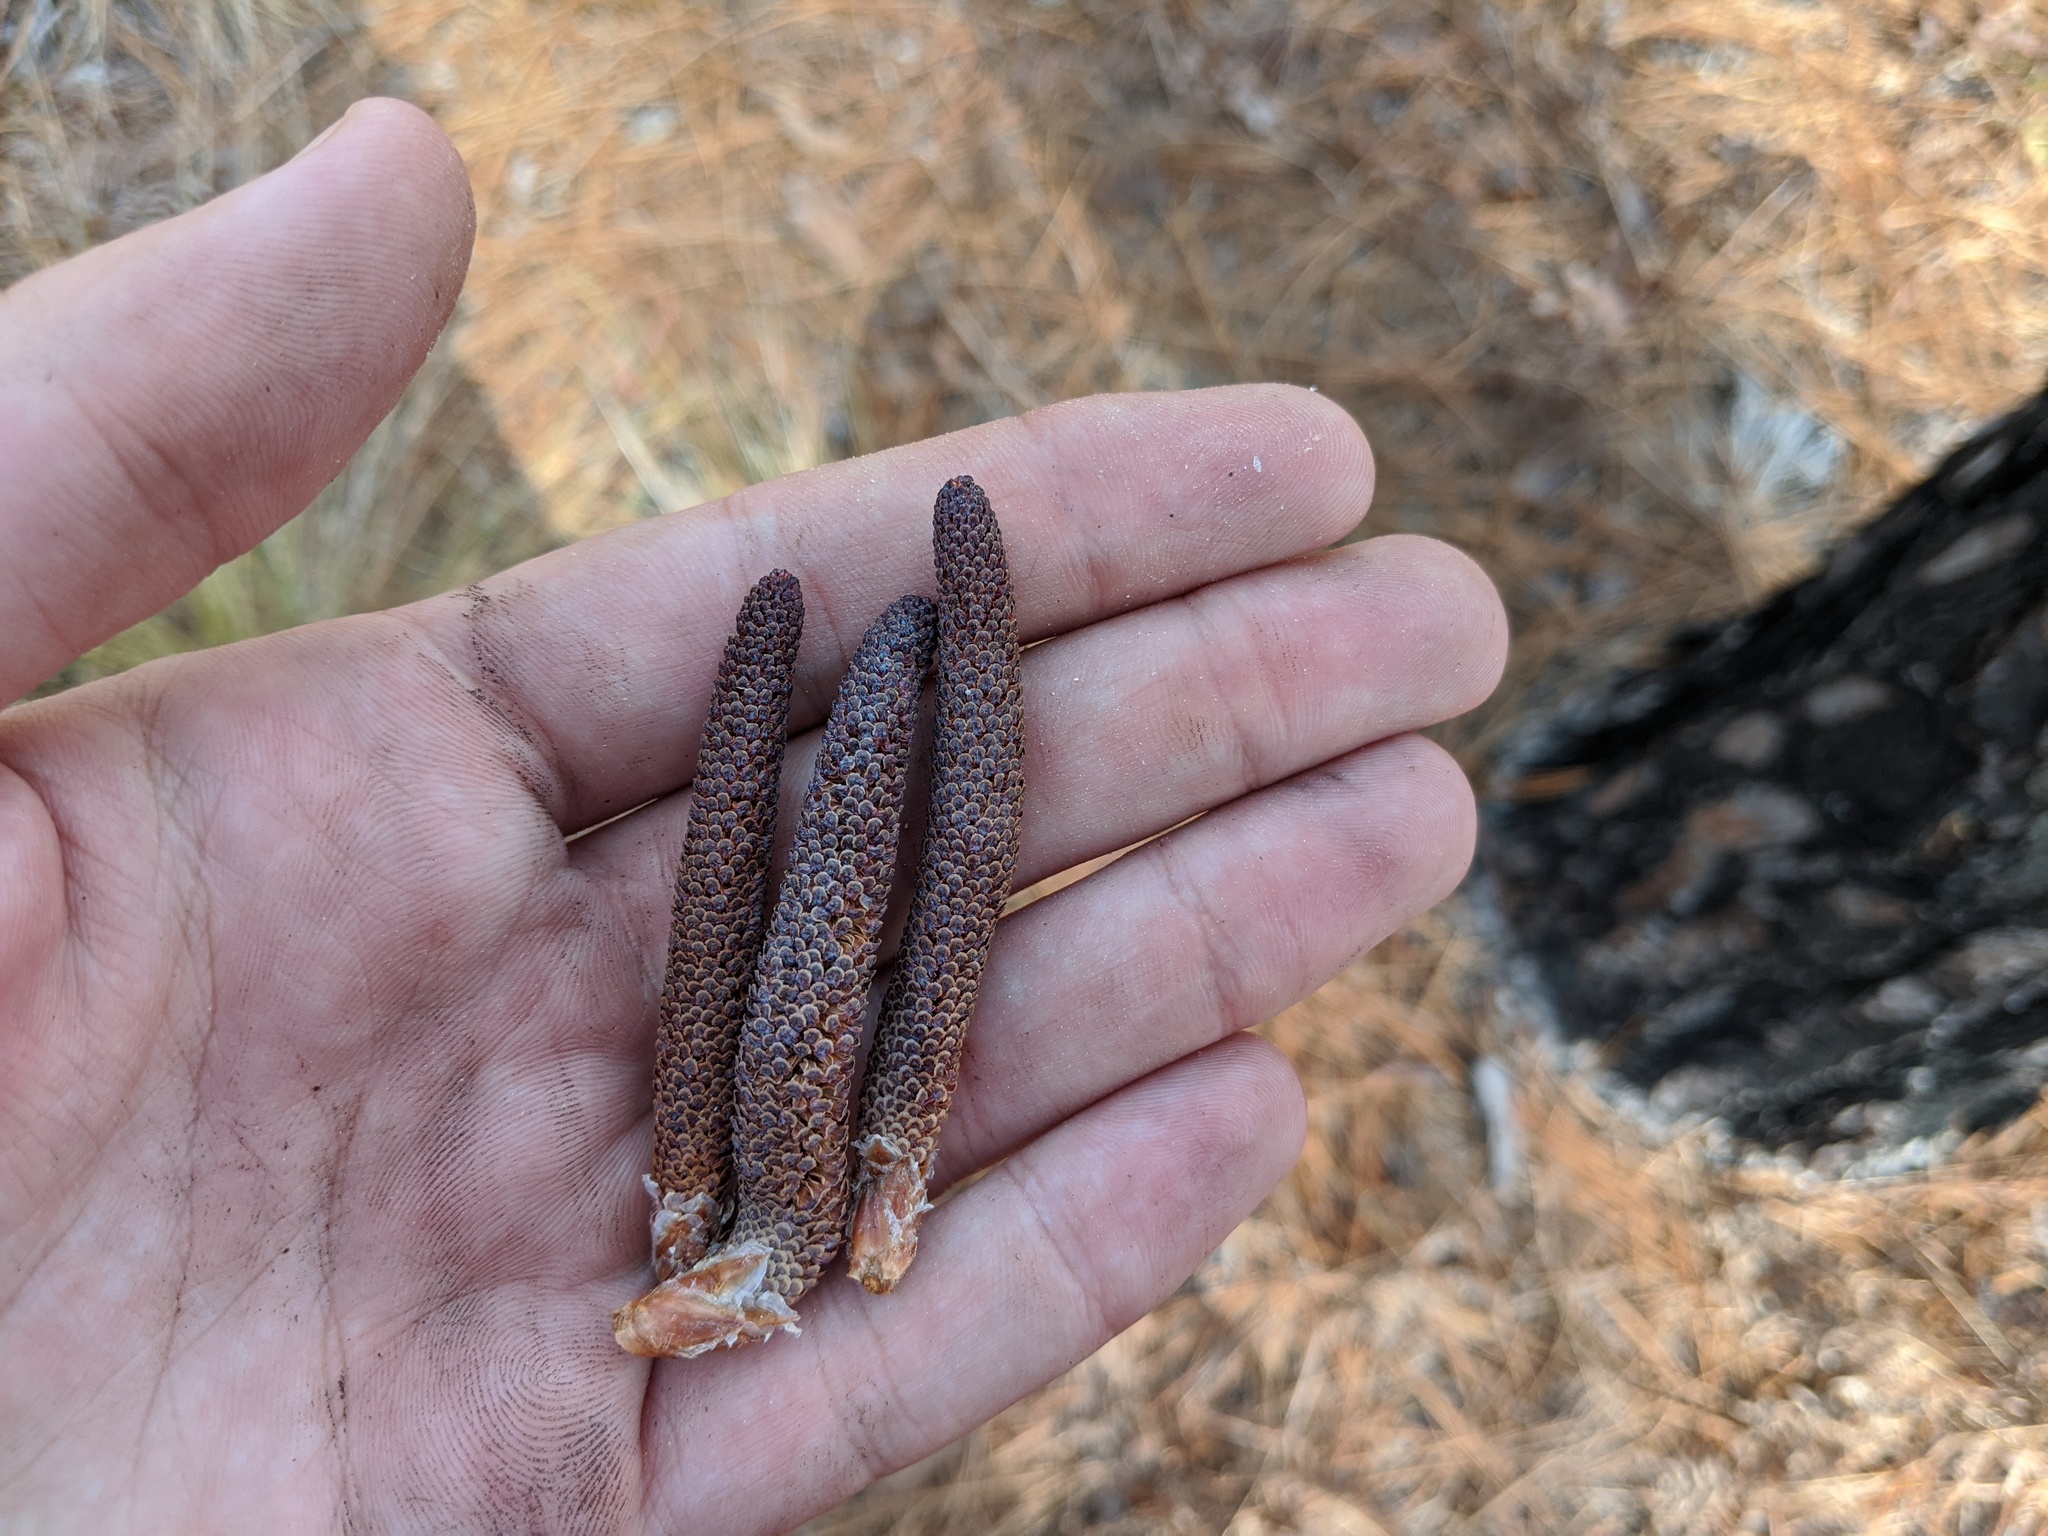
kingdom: Plantae
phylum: Tracheophyta
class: Pinopsida
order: Pinales
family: Pinaceae
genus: Pinus
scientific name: Pinus palustris
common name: Longleaf pine
